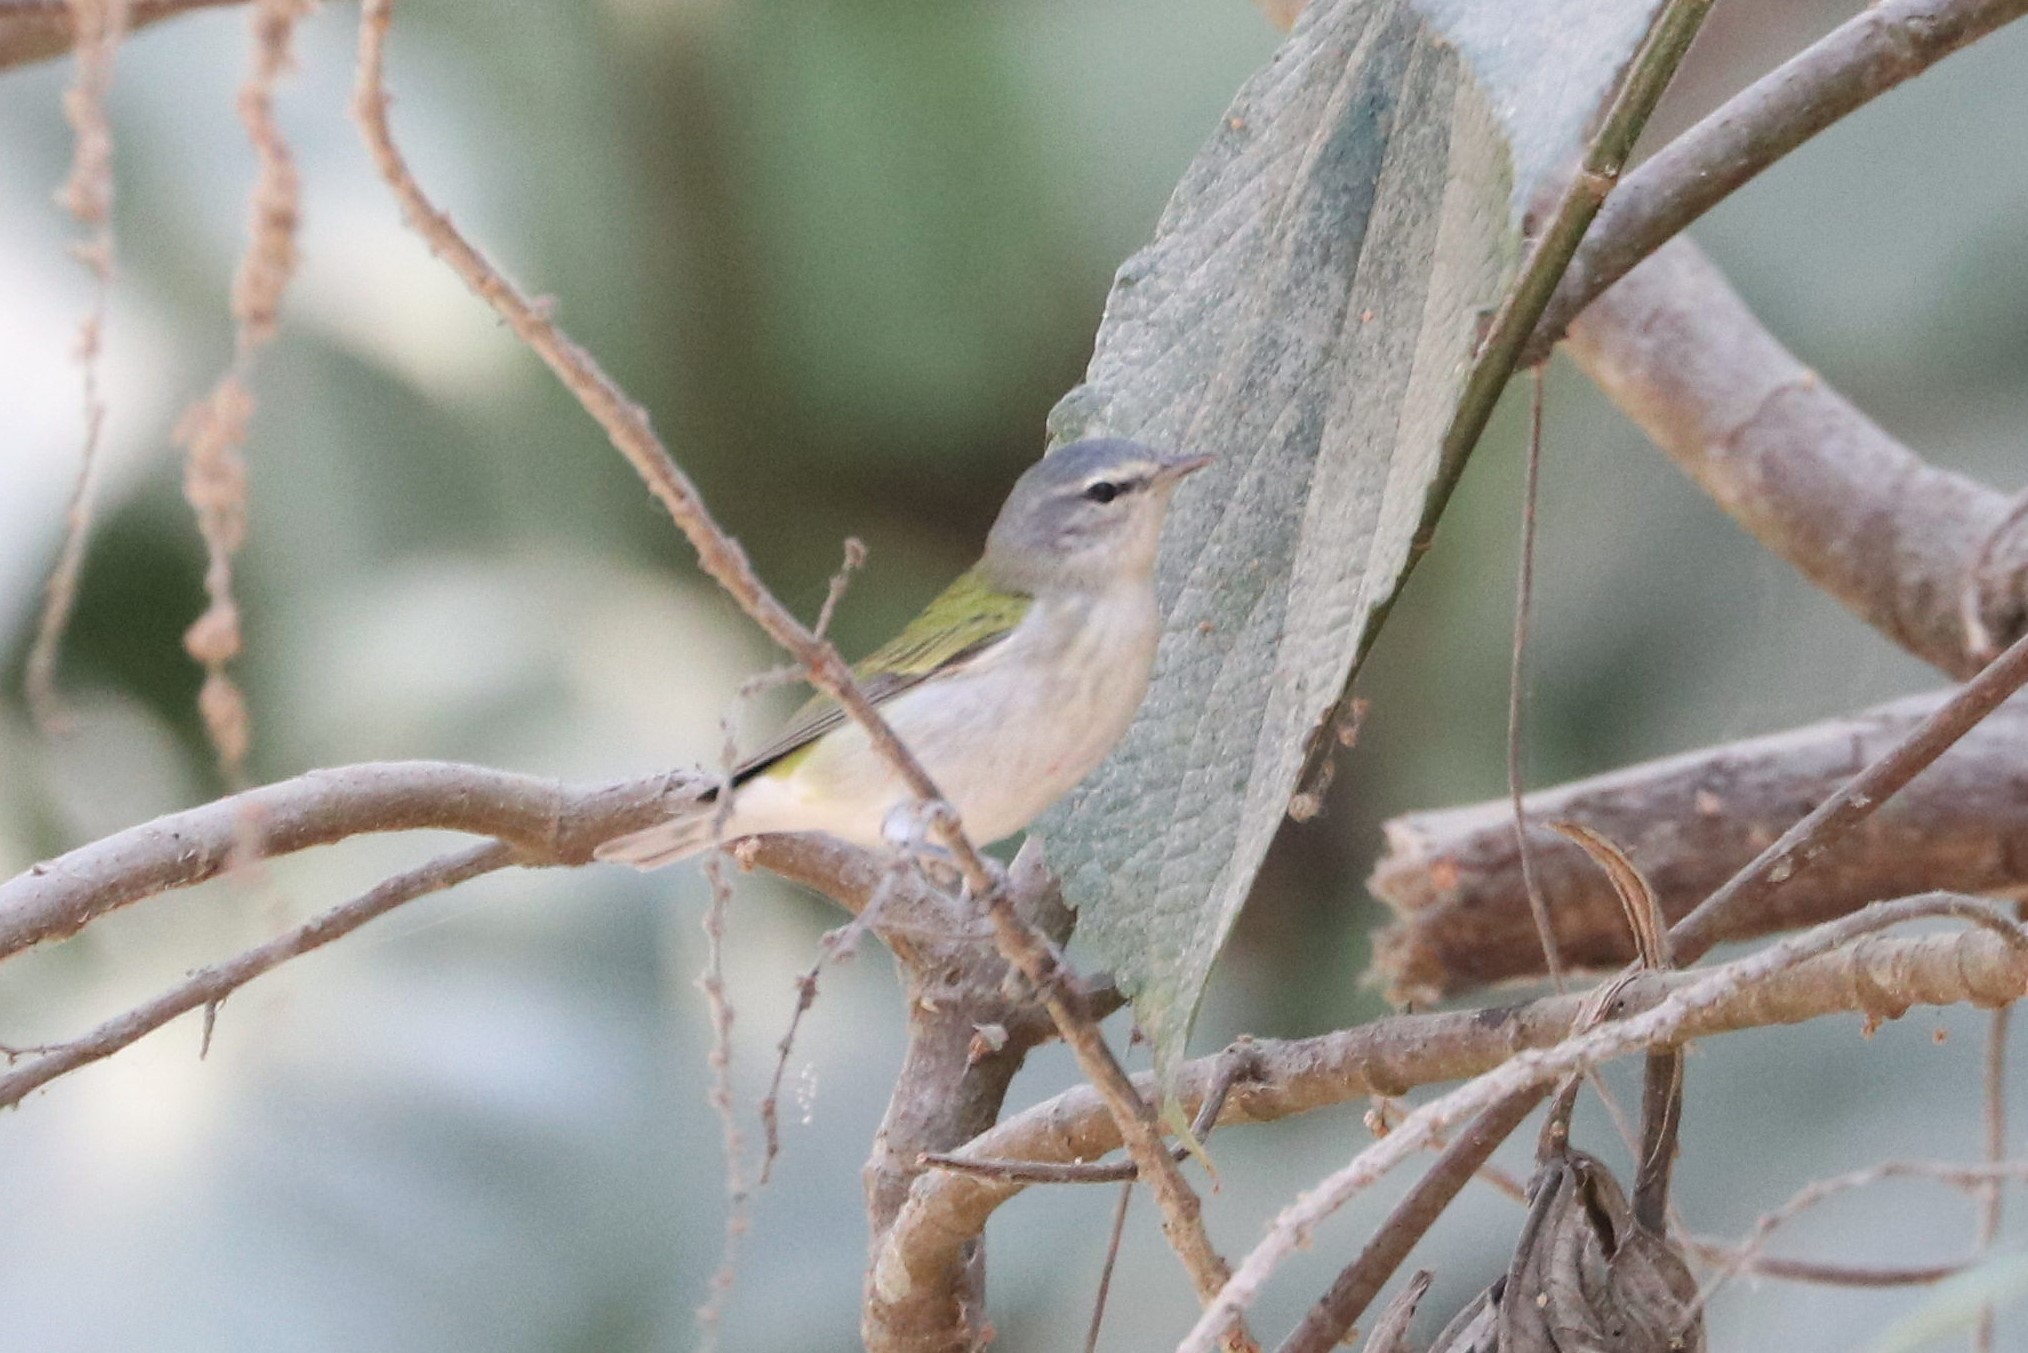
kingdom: Animalia
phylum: Chordata
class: Aves
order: Passeriformes
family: Parulidae
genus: Leiothlypis
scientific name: Leiothlypis peregrina
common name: Tennessee warbler
